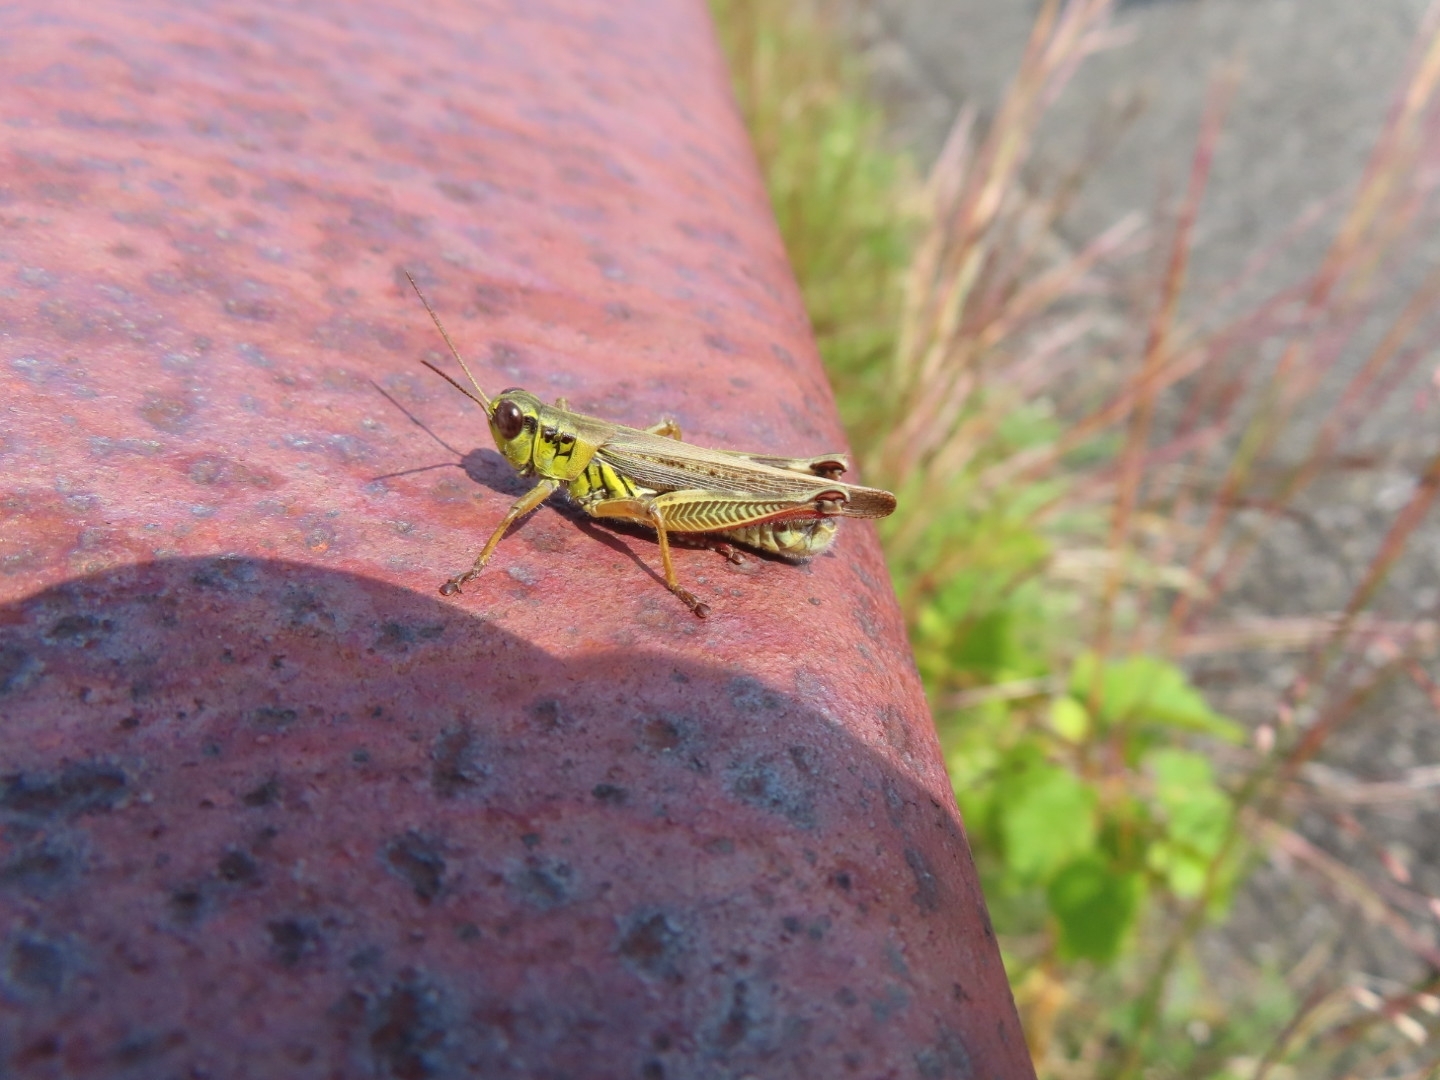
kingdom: Animalia
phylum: Arthropoda
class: Insecta
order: Orthoptera
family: Acrididae
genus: Melanoplus
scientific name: Melanoplus femurrubrum
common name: Red-legged grasshopper
